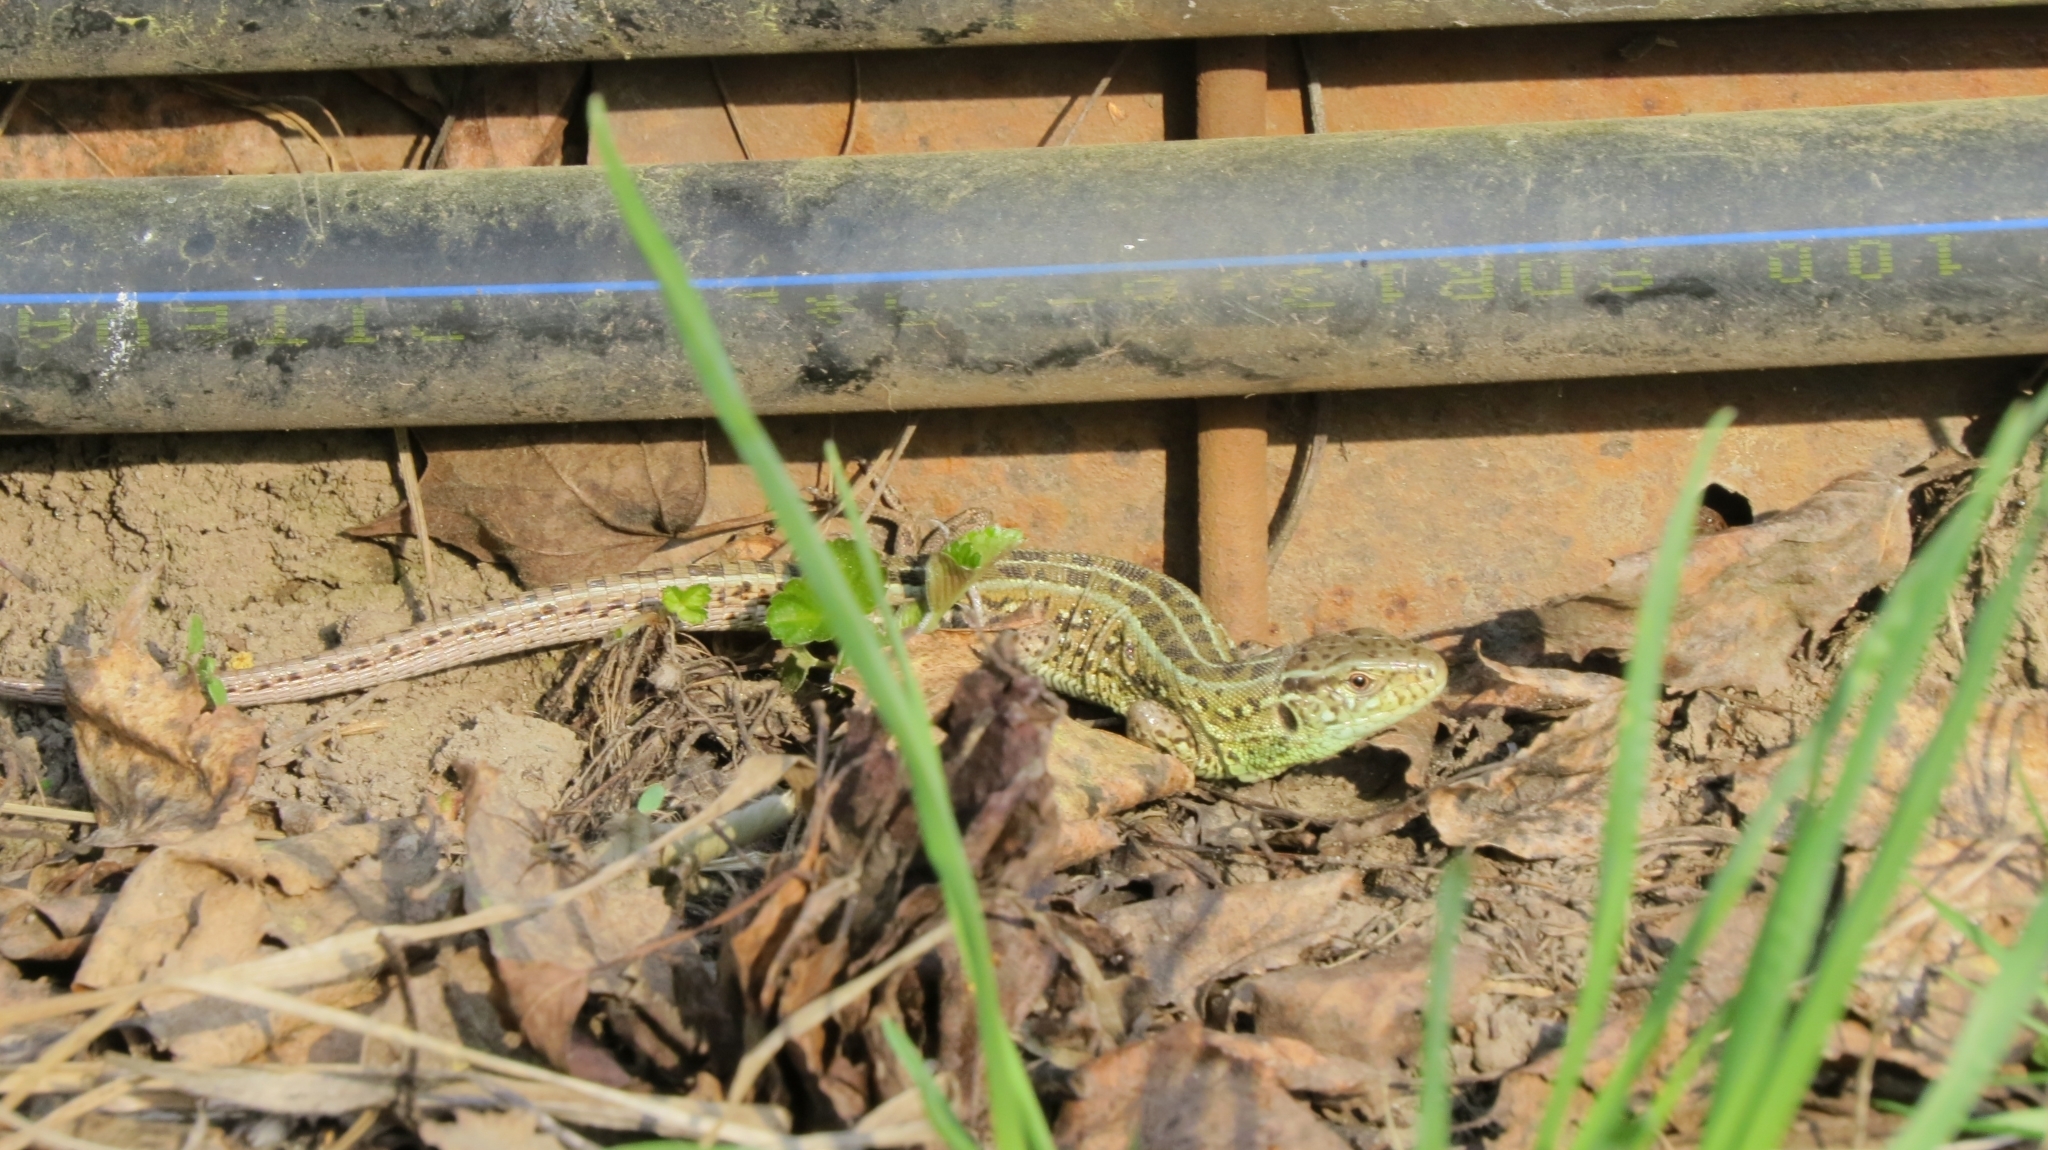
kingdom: Animalia
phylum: Chordata
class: Squamata
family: Lacertidae
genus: Lacerta
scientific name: Lacerta agilis
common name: Sand lizard
